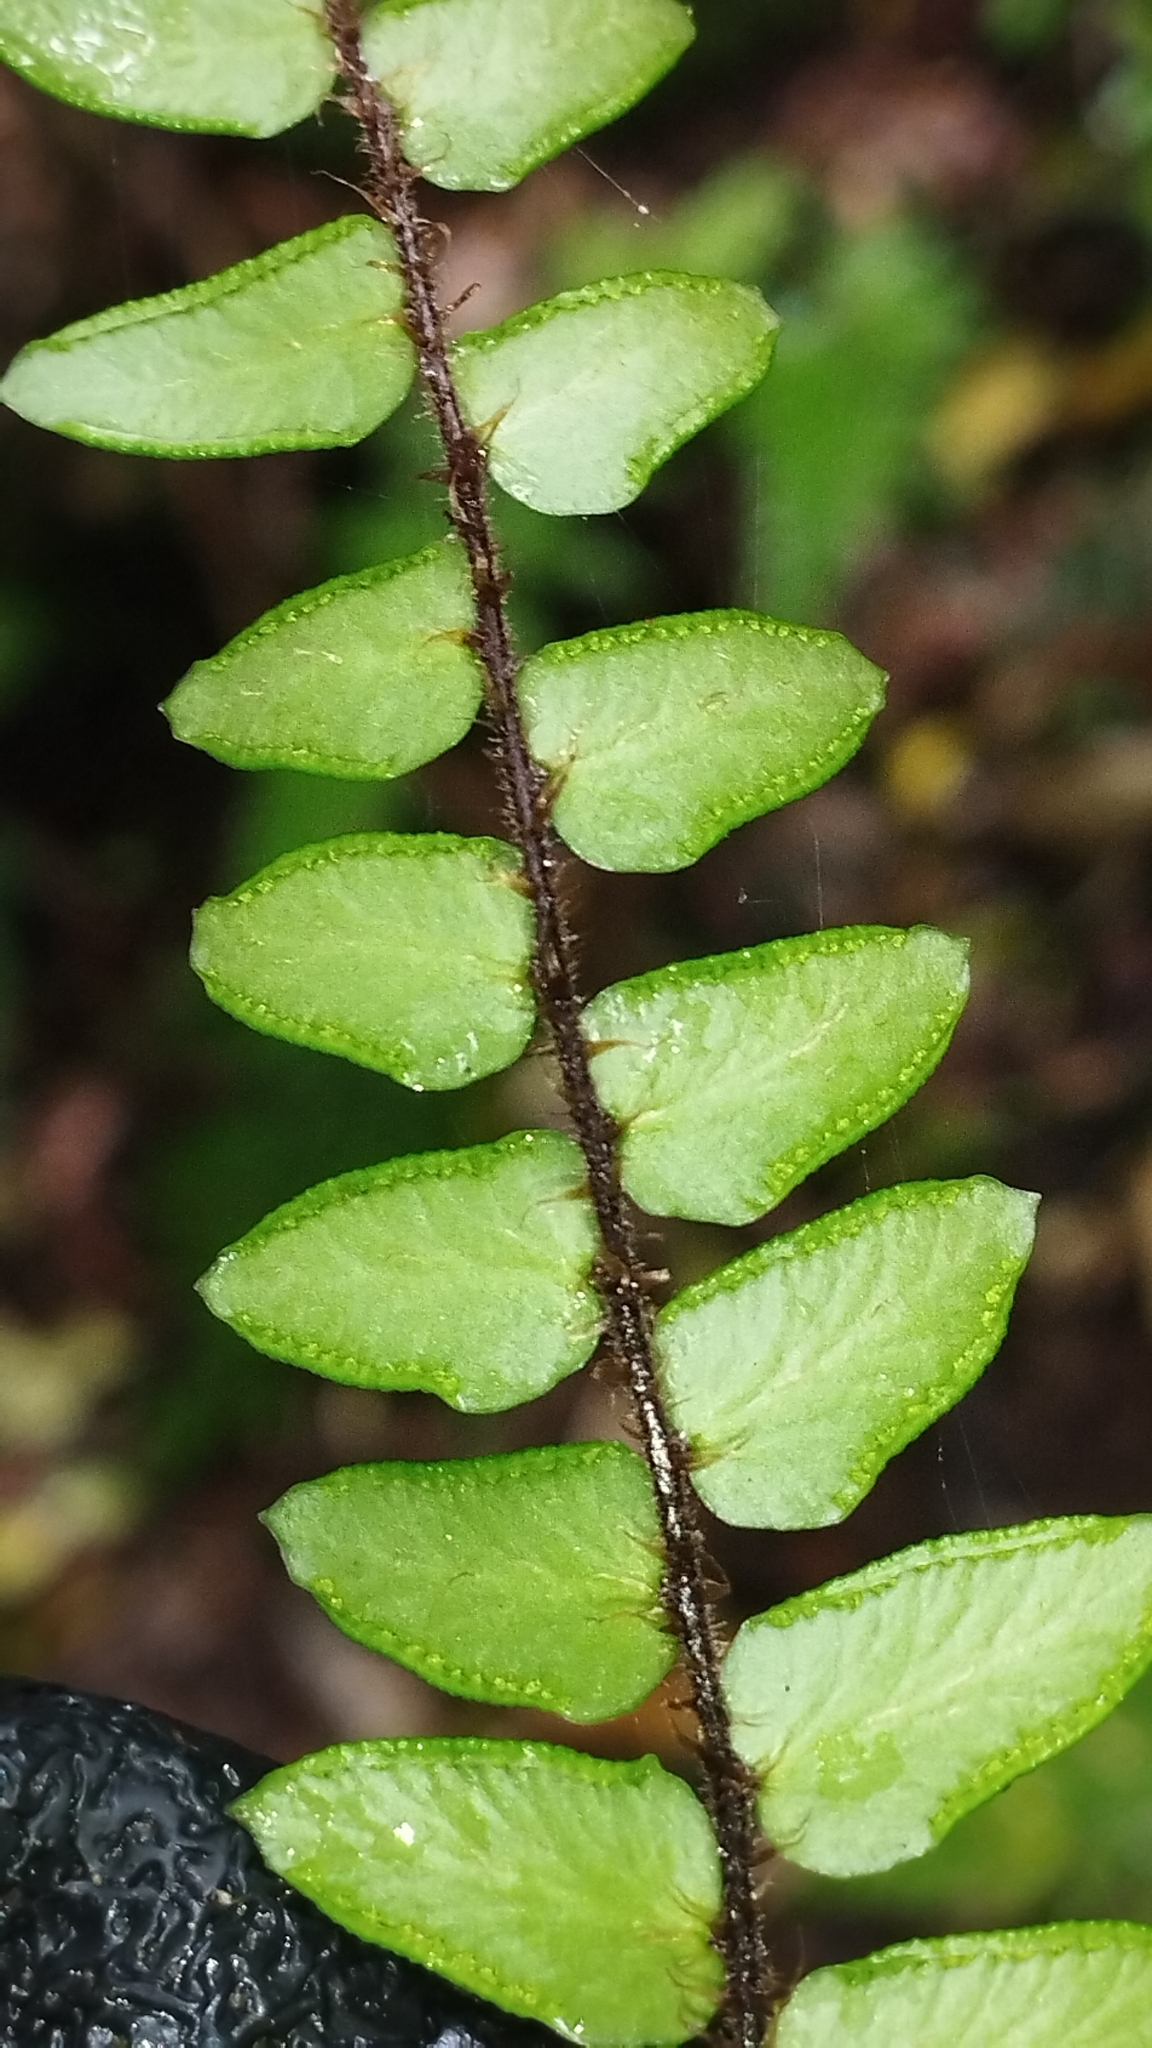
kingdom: Plantae
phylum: Tracheophyta
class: Polypodiopsida
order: Polypodiales
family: Pteridaceae
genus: Pellaea
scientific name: Pellaea rotundifolia
